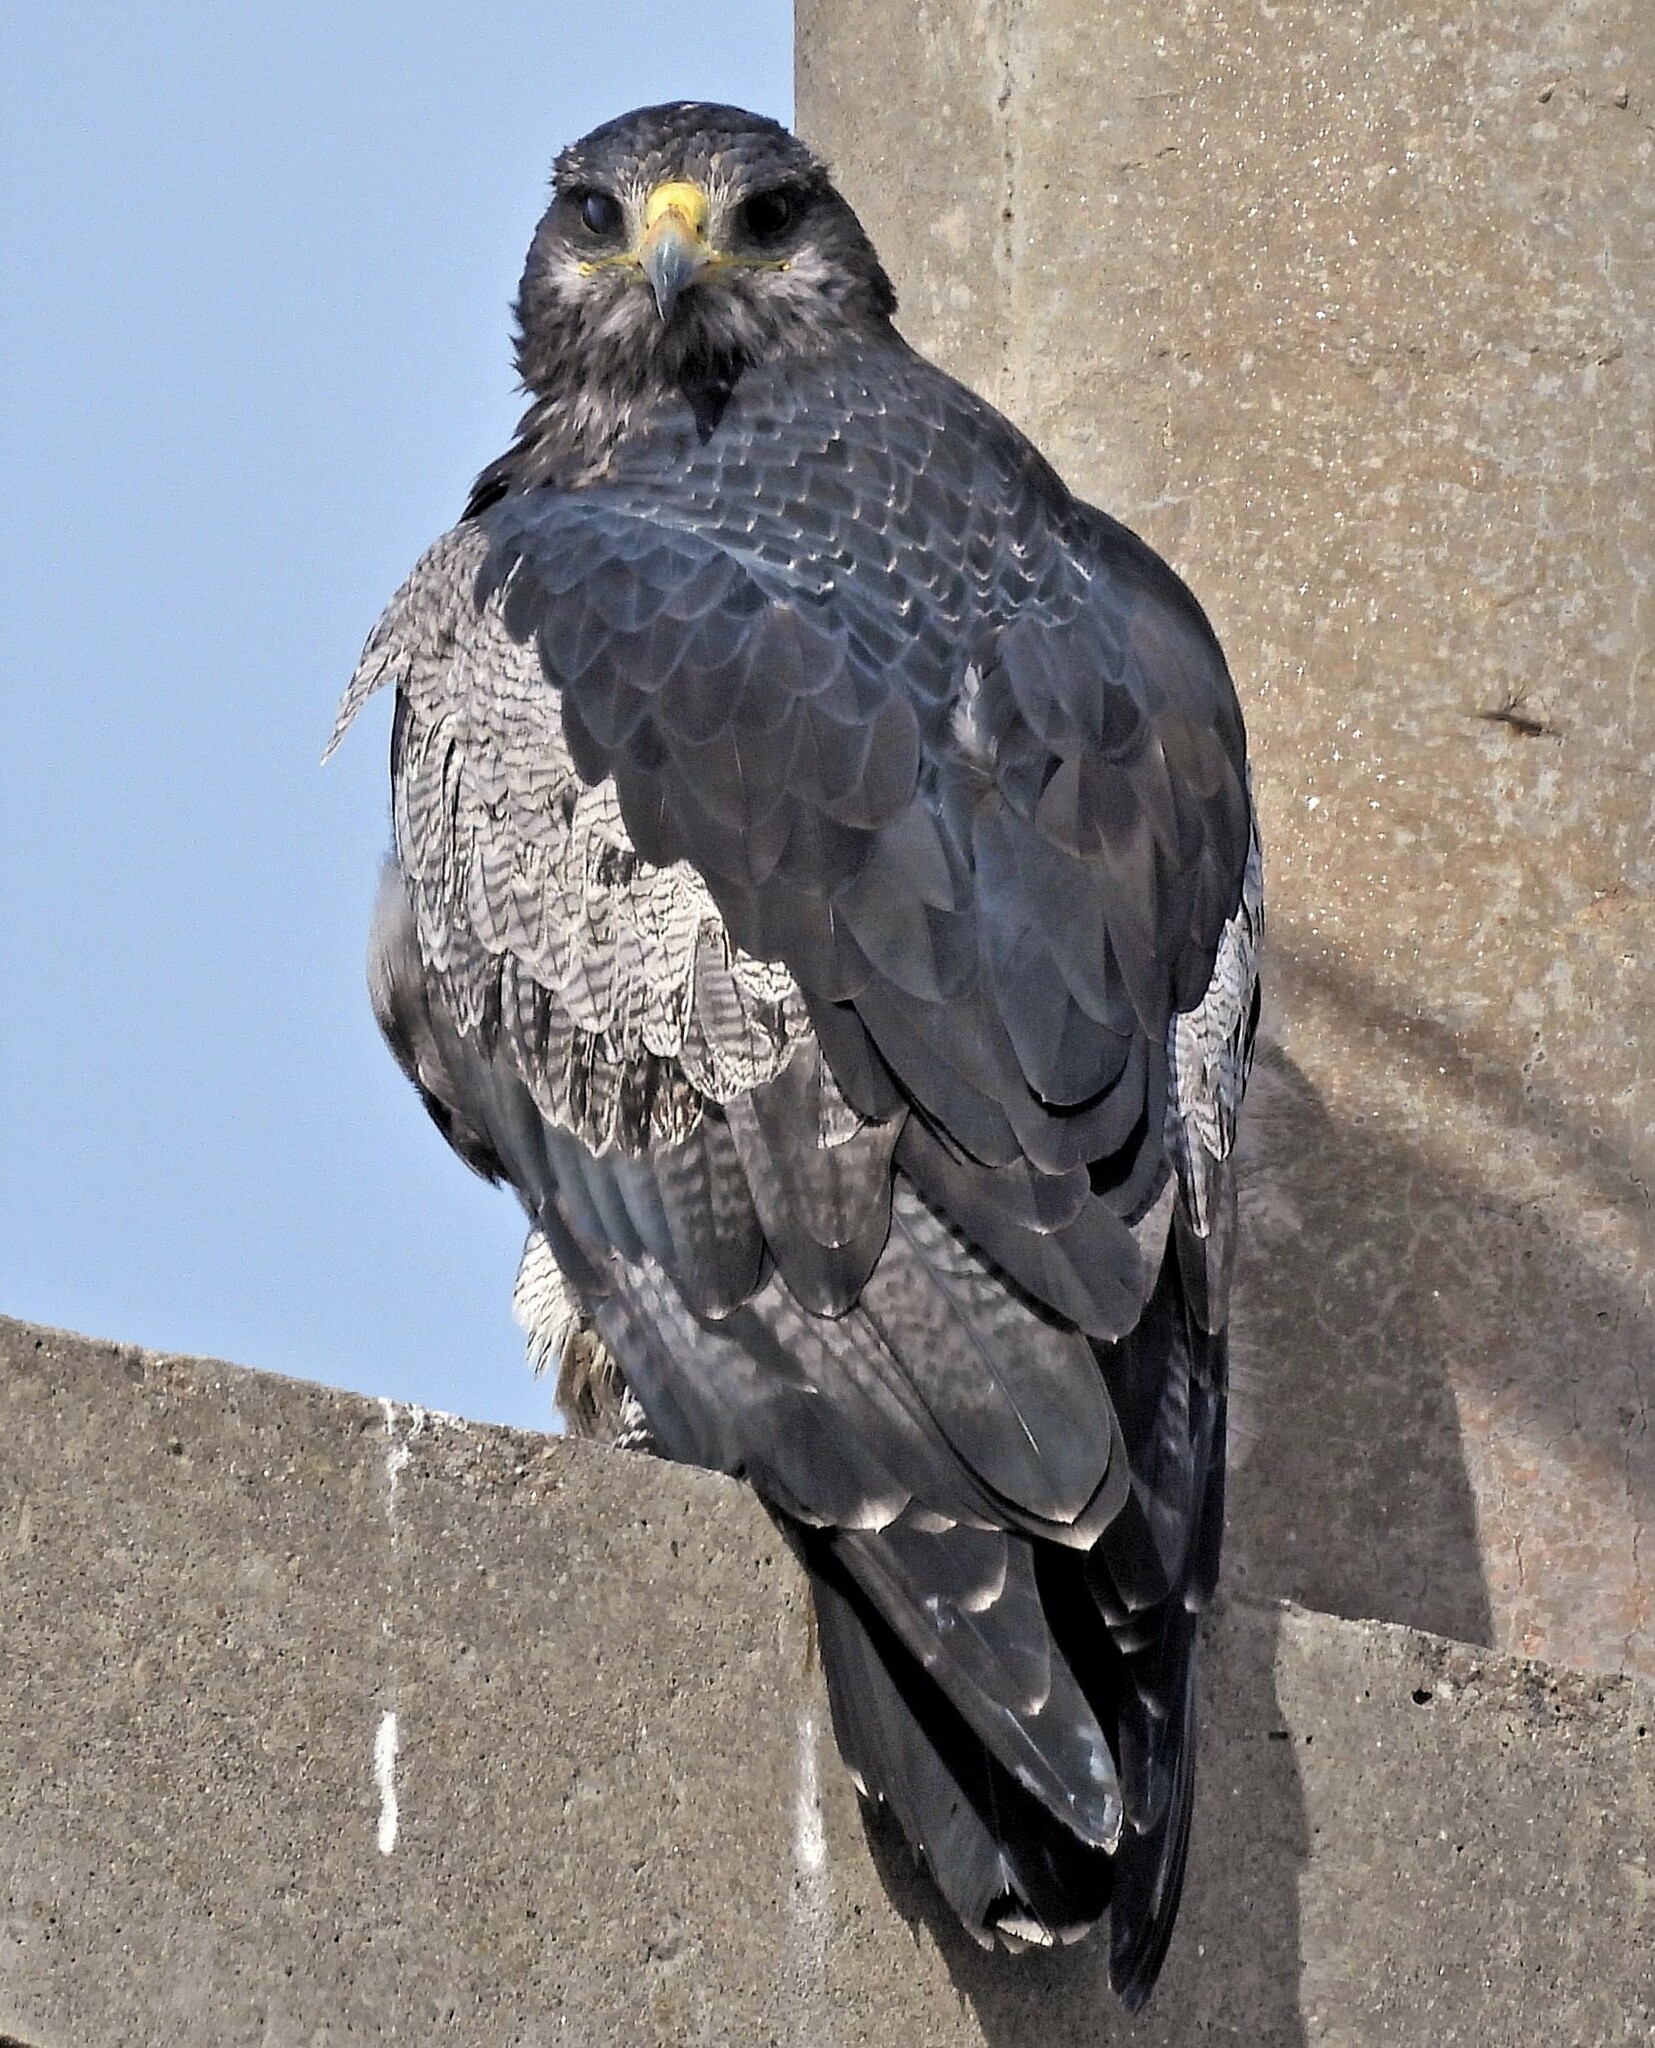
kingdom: Animalia
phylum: Chordata
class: Aves
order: Accipitriformes
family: Accipitridae
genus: Geranoaetus
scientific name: Geranoaetus melanoleucus
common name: Black-chested buzzard-eagle
